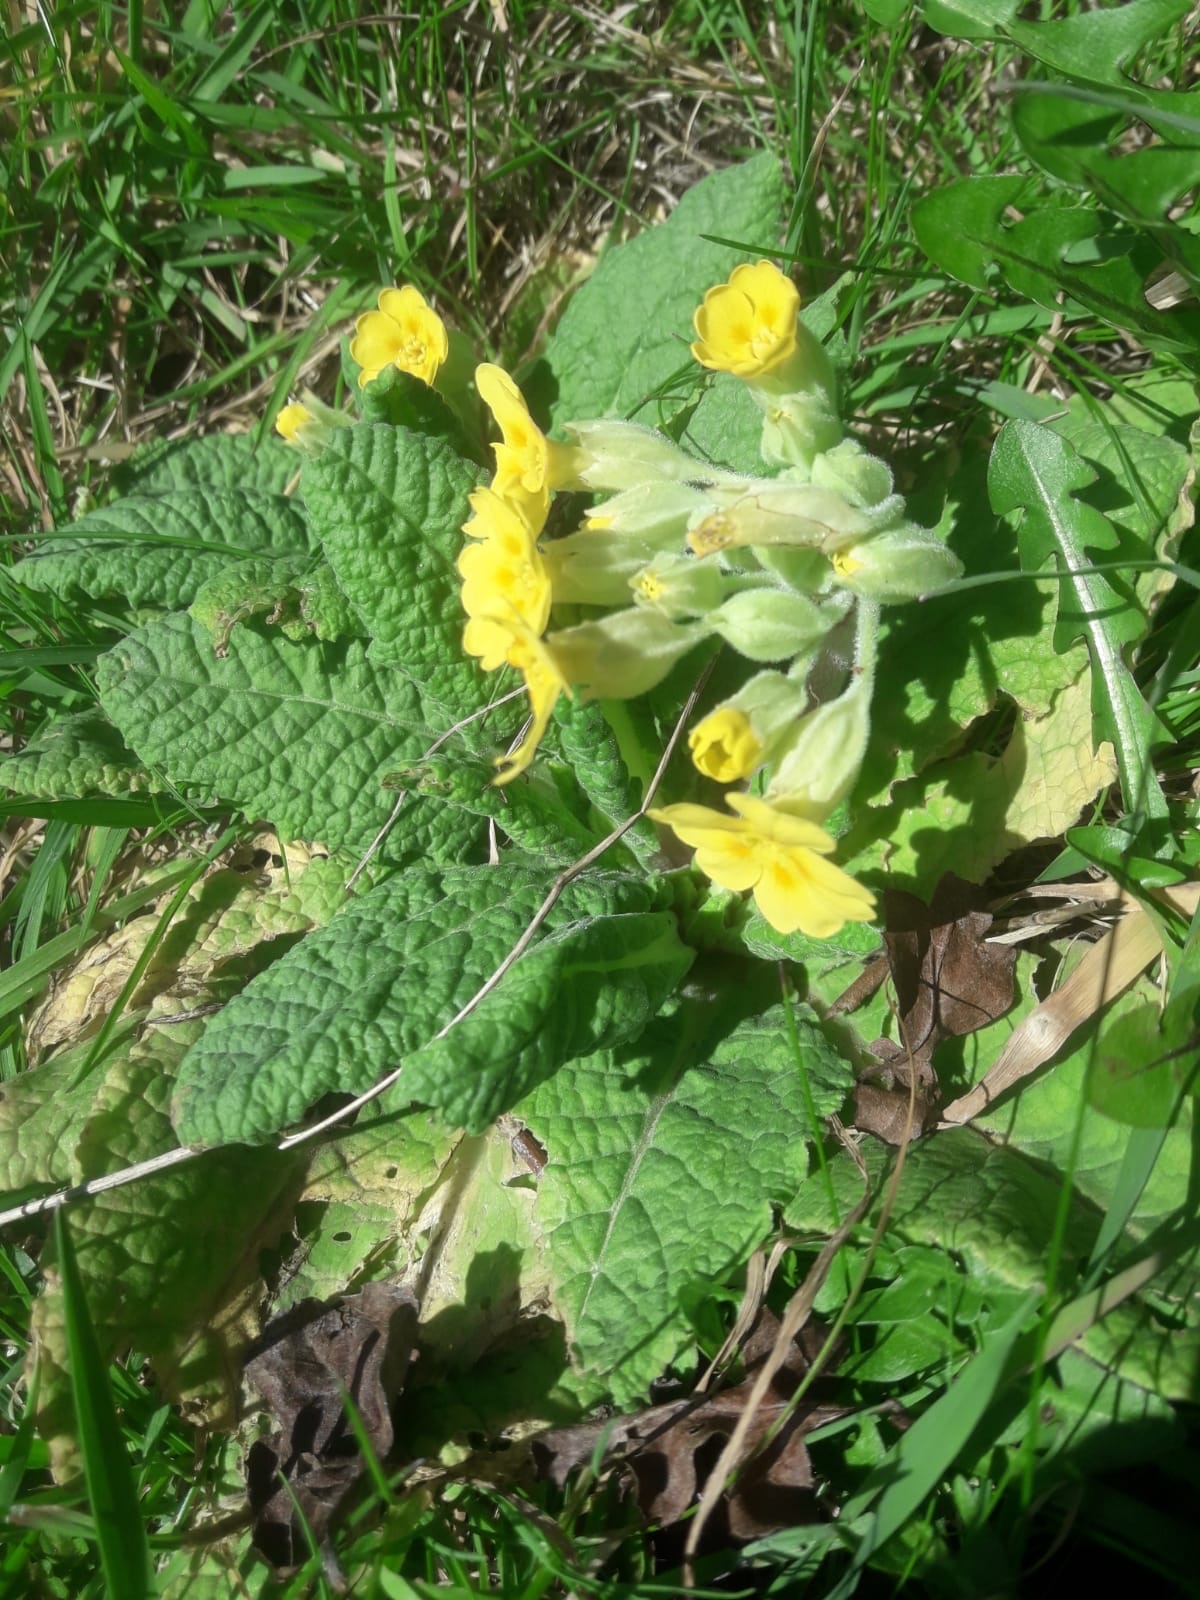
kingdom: Plantae
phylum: Tracheophyta
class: Magnoliopsida
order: Ericales
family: Primulaceae
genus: Primula
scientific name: Primula polyantha
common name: False oxlip
